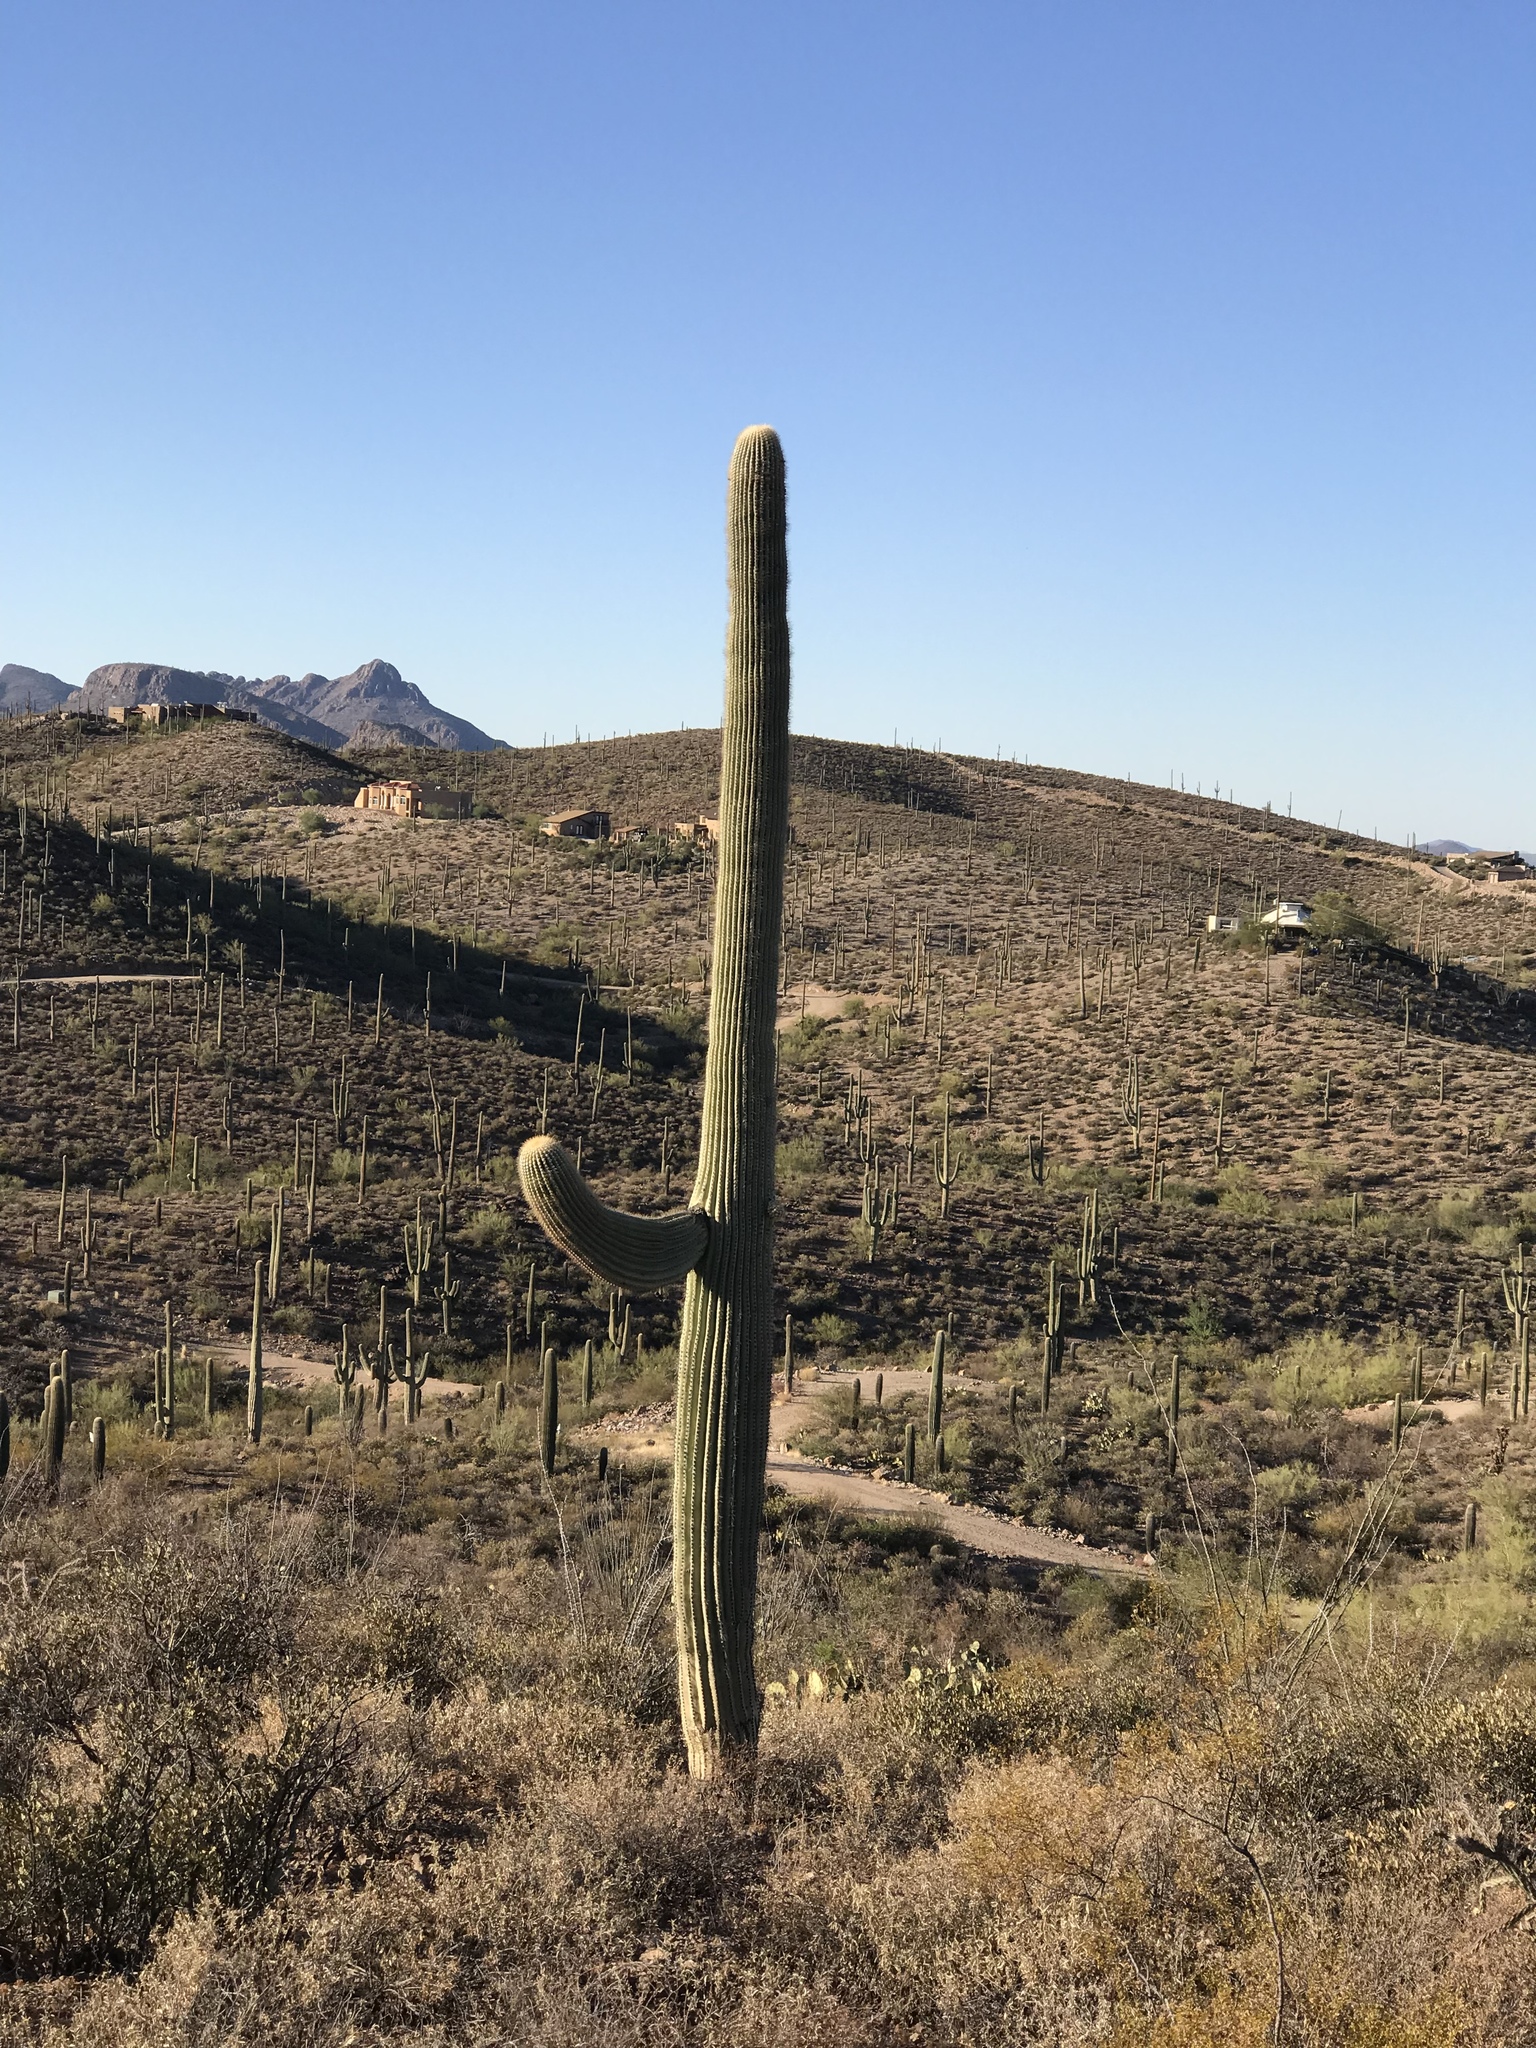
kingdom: Plantae
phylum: Tracheophyta
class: Magnoliopsida
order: Caryophyllales
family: Cactaceae
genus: Carnegiea
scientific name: Carnegiea gigantea
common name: Saguaro
